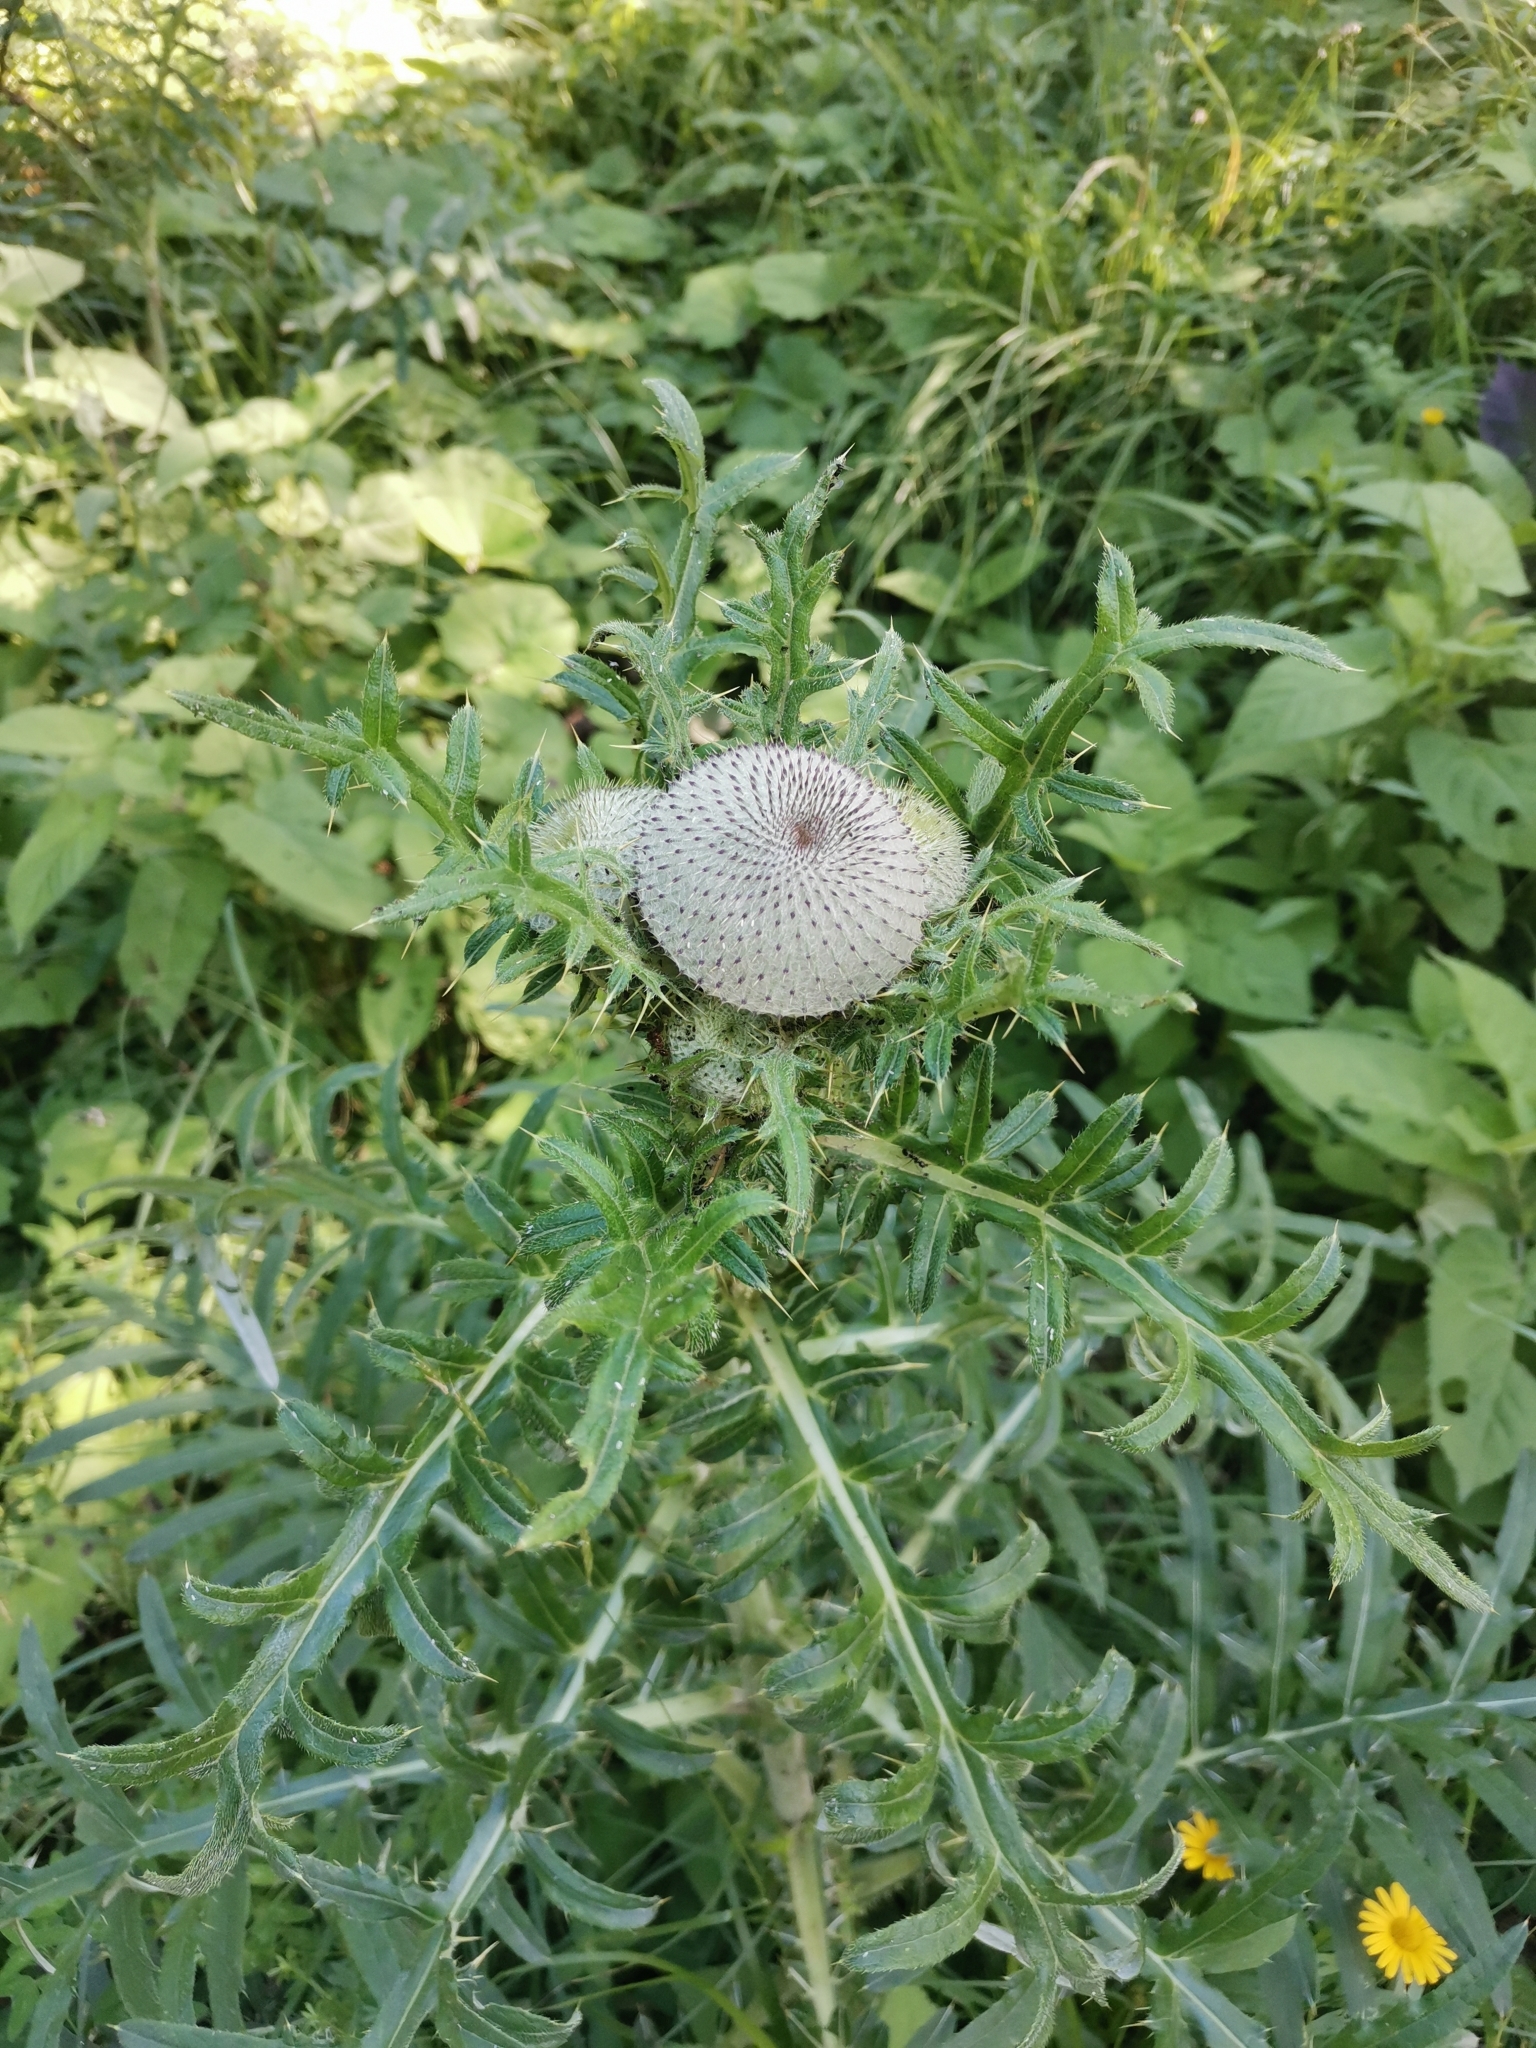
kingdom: Plantae
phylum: Tracheophyta
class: Magnoliopsida
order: Asterales
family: Asteraceae
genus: Lophiolepis
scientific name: Lophiolepis eriophora
